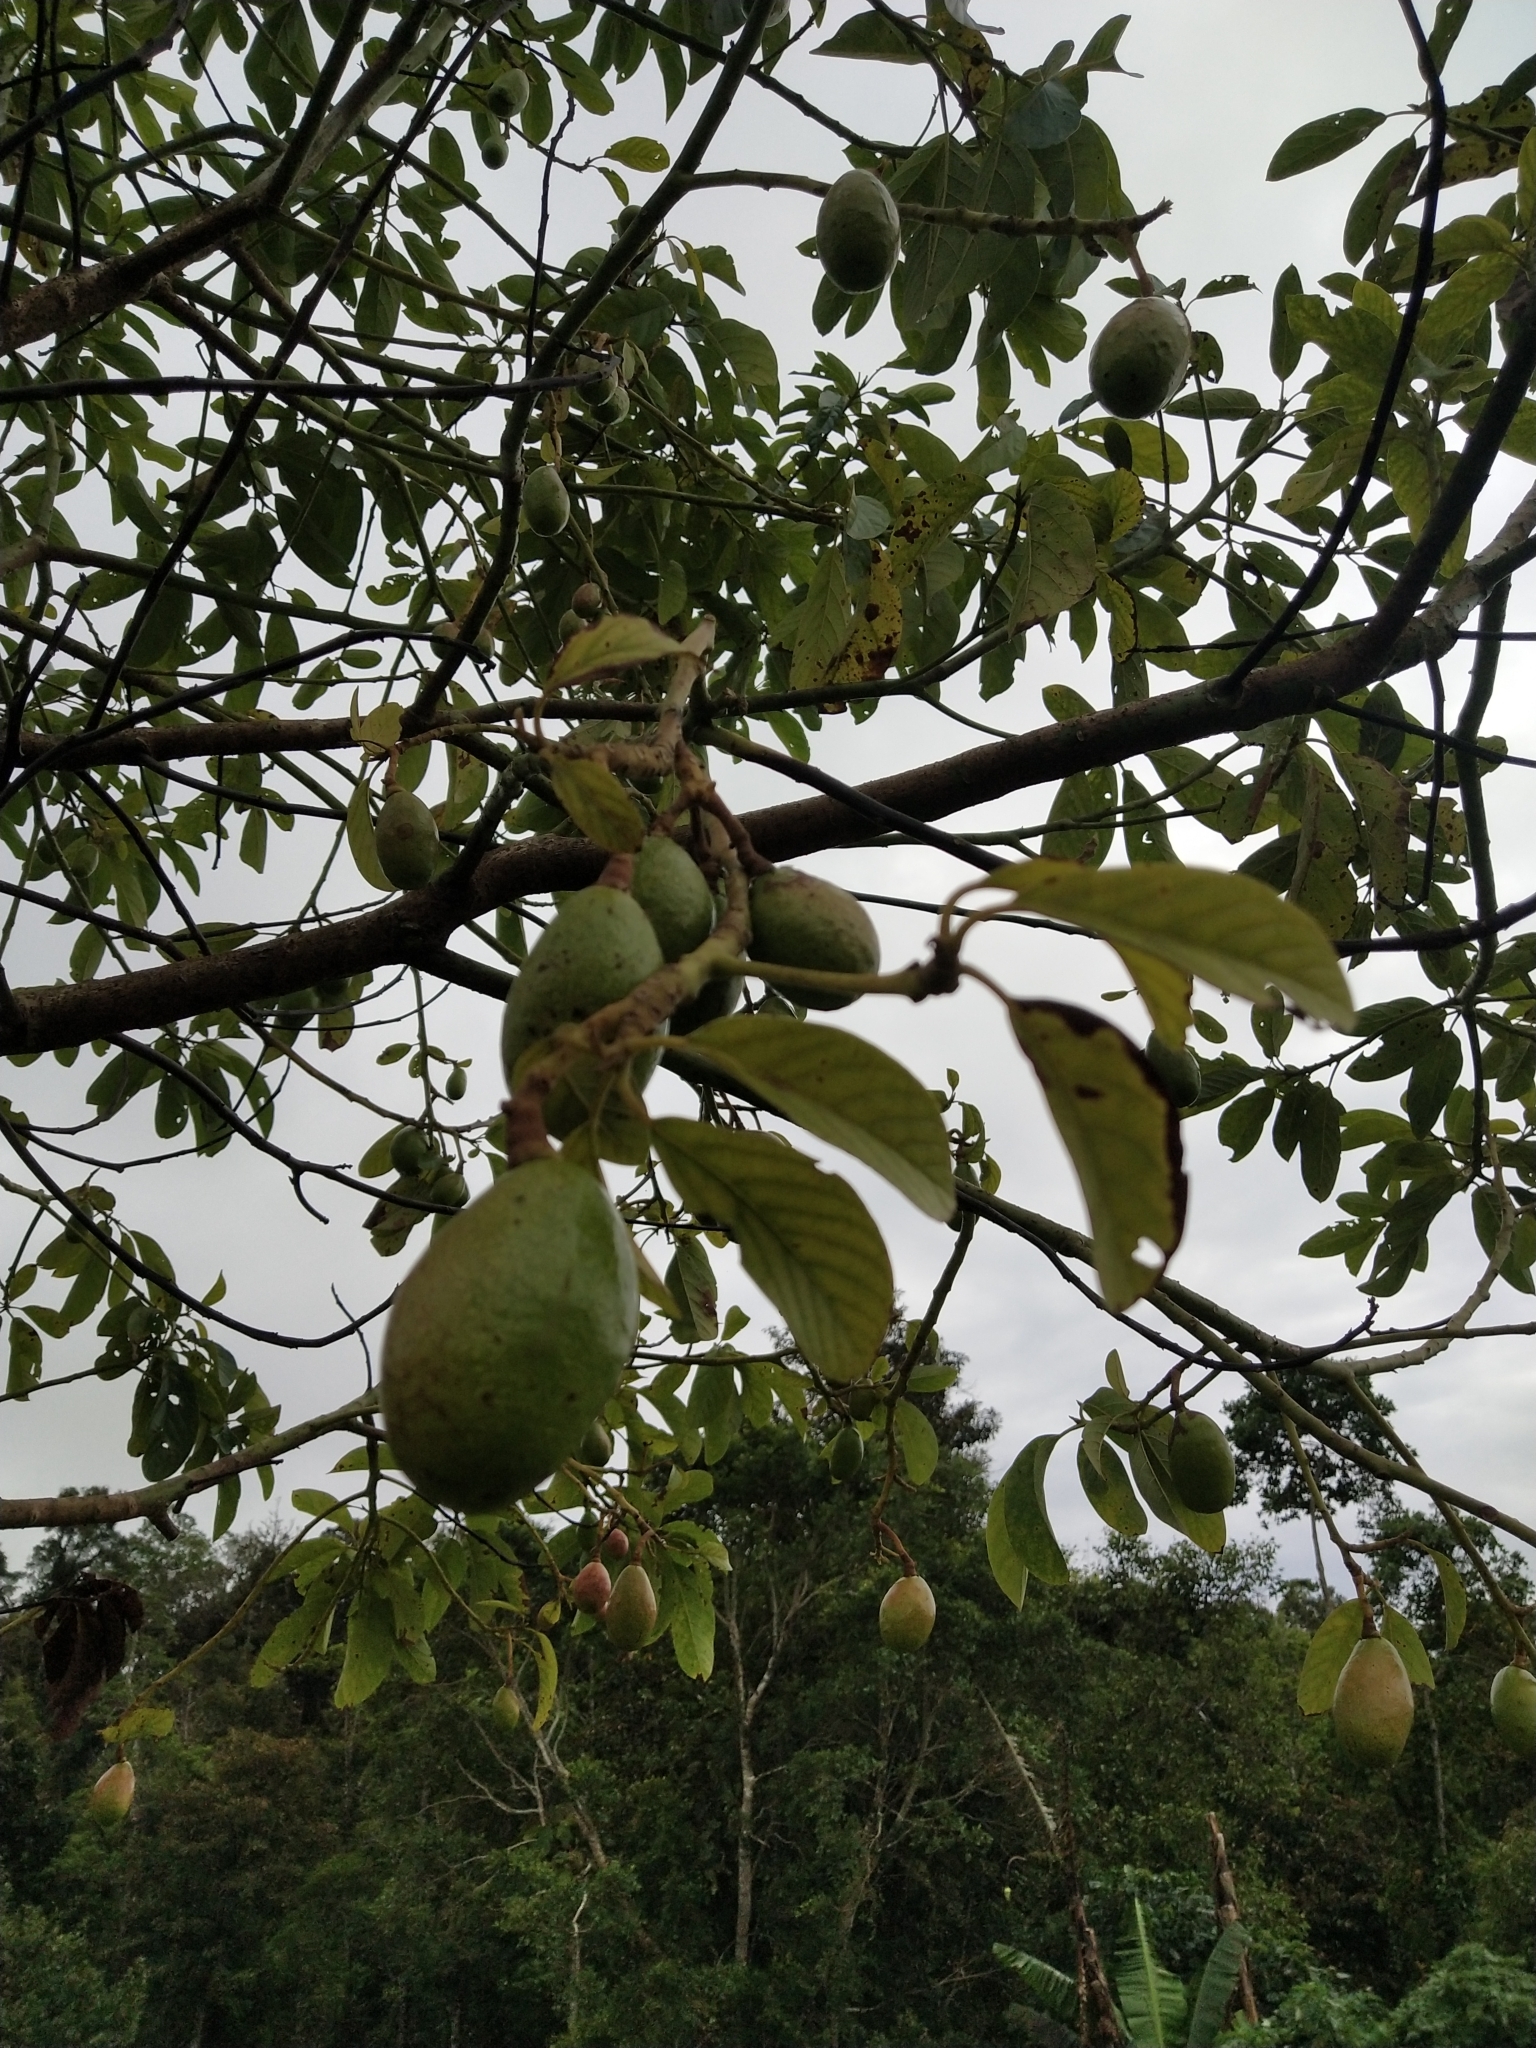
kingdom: Plantae
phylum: Tracheophyta
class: Magnoliopsida
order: Laurales
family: Lauraceae
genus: Persea
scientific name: Persea americana
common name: Avocado
